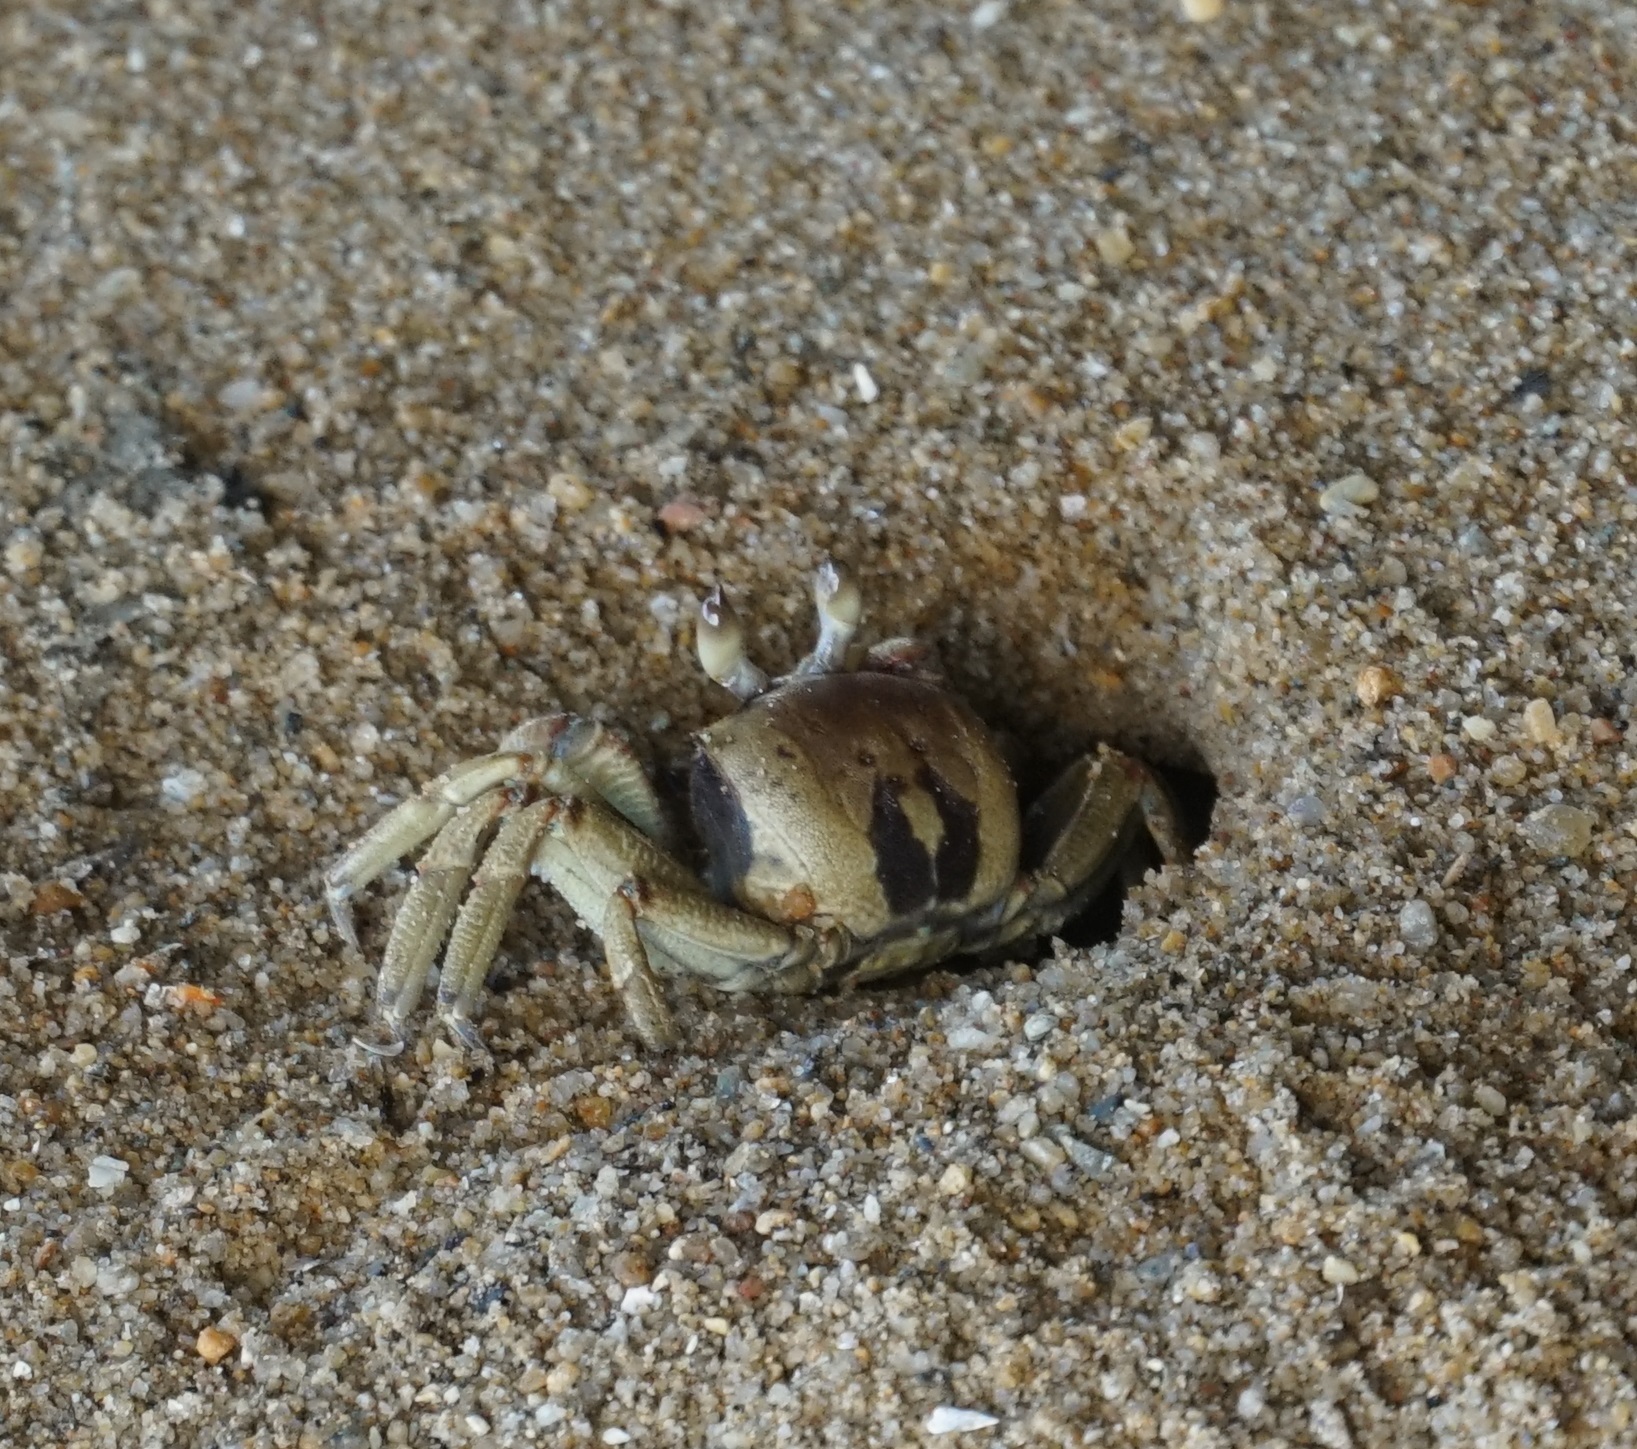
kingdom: Animalia
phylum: Arthropoda
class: Malacostraca
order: Decapoda
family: Ocypodidae
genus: Ocypode
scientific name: Ocypode ceratophthalmus
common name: Indo-pacific ghost crab
